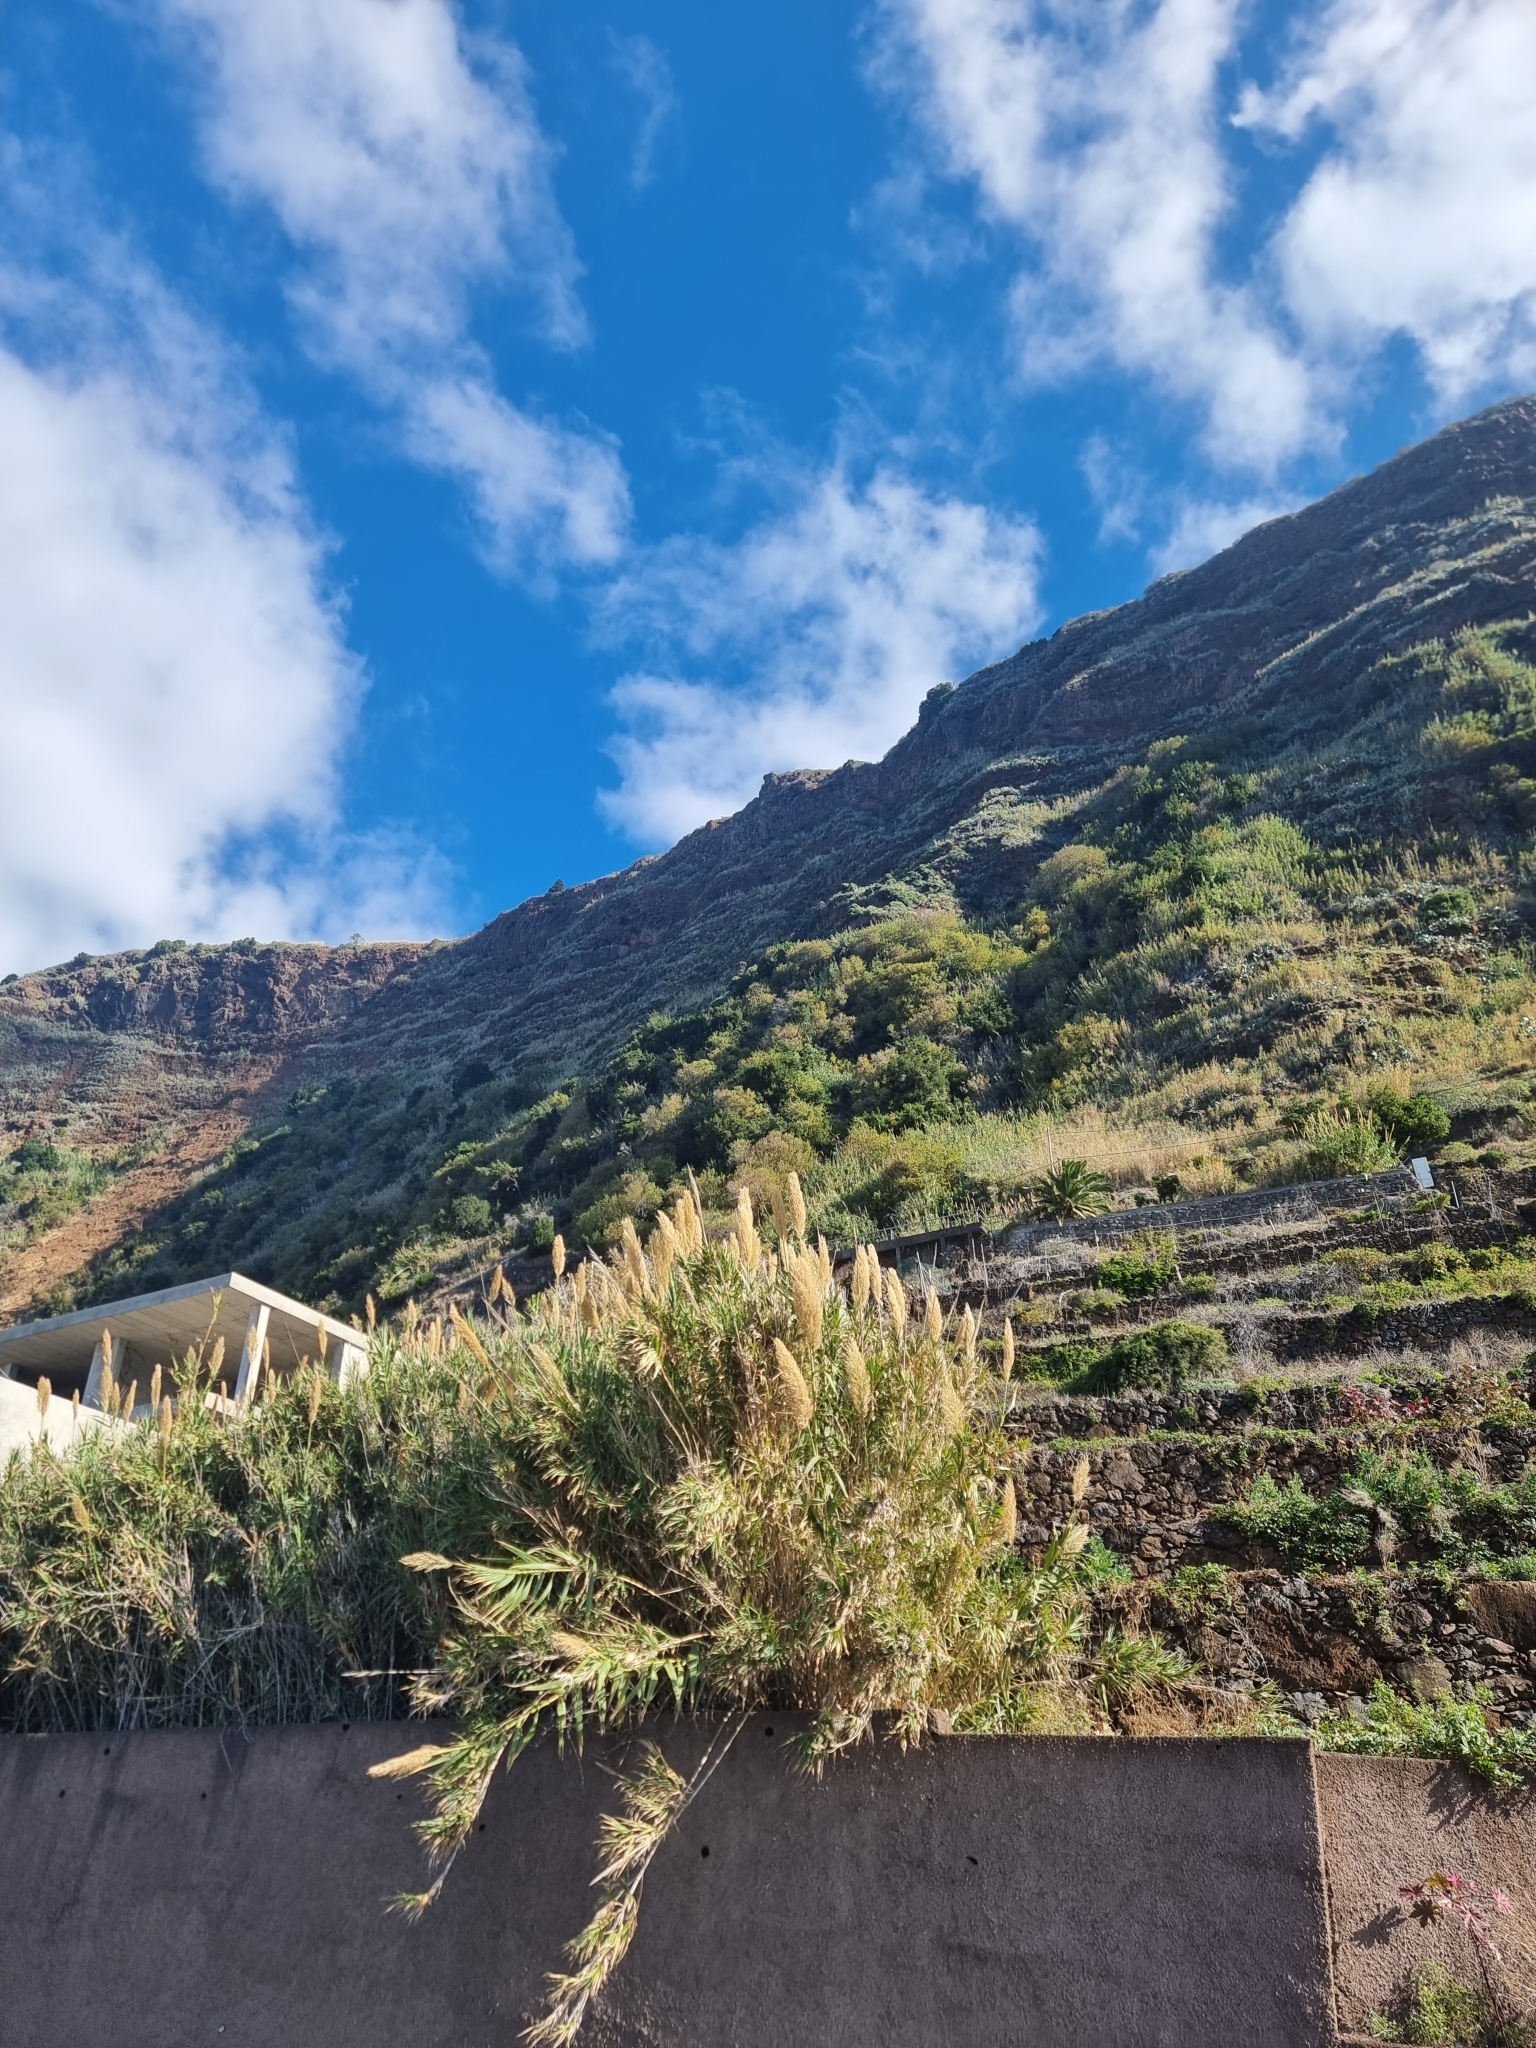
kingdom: Plantae
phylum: Tracheophyta
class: Magnoliopsida
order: Malpighiales
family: Salicaceae
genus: Salix
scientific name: Salix canariensis
